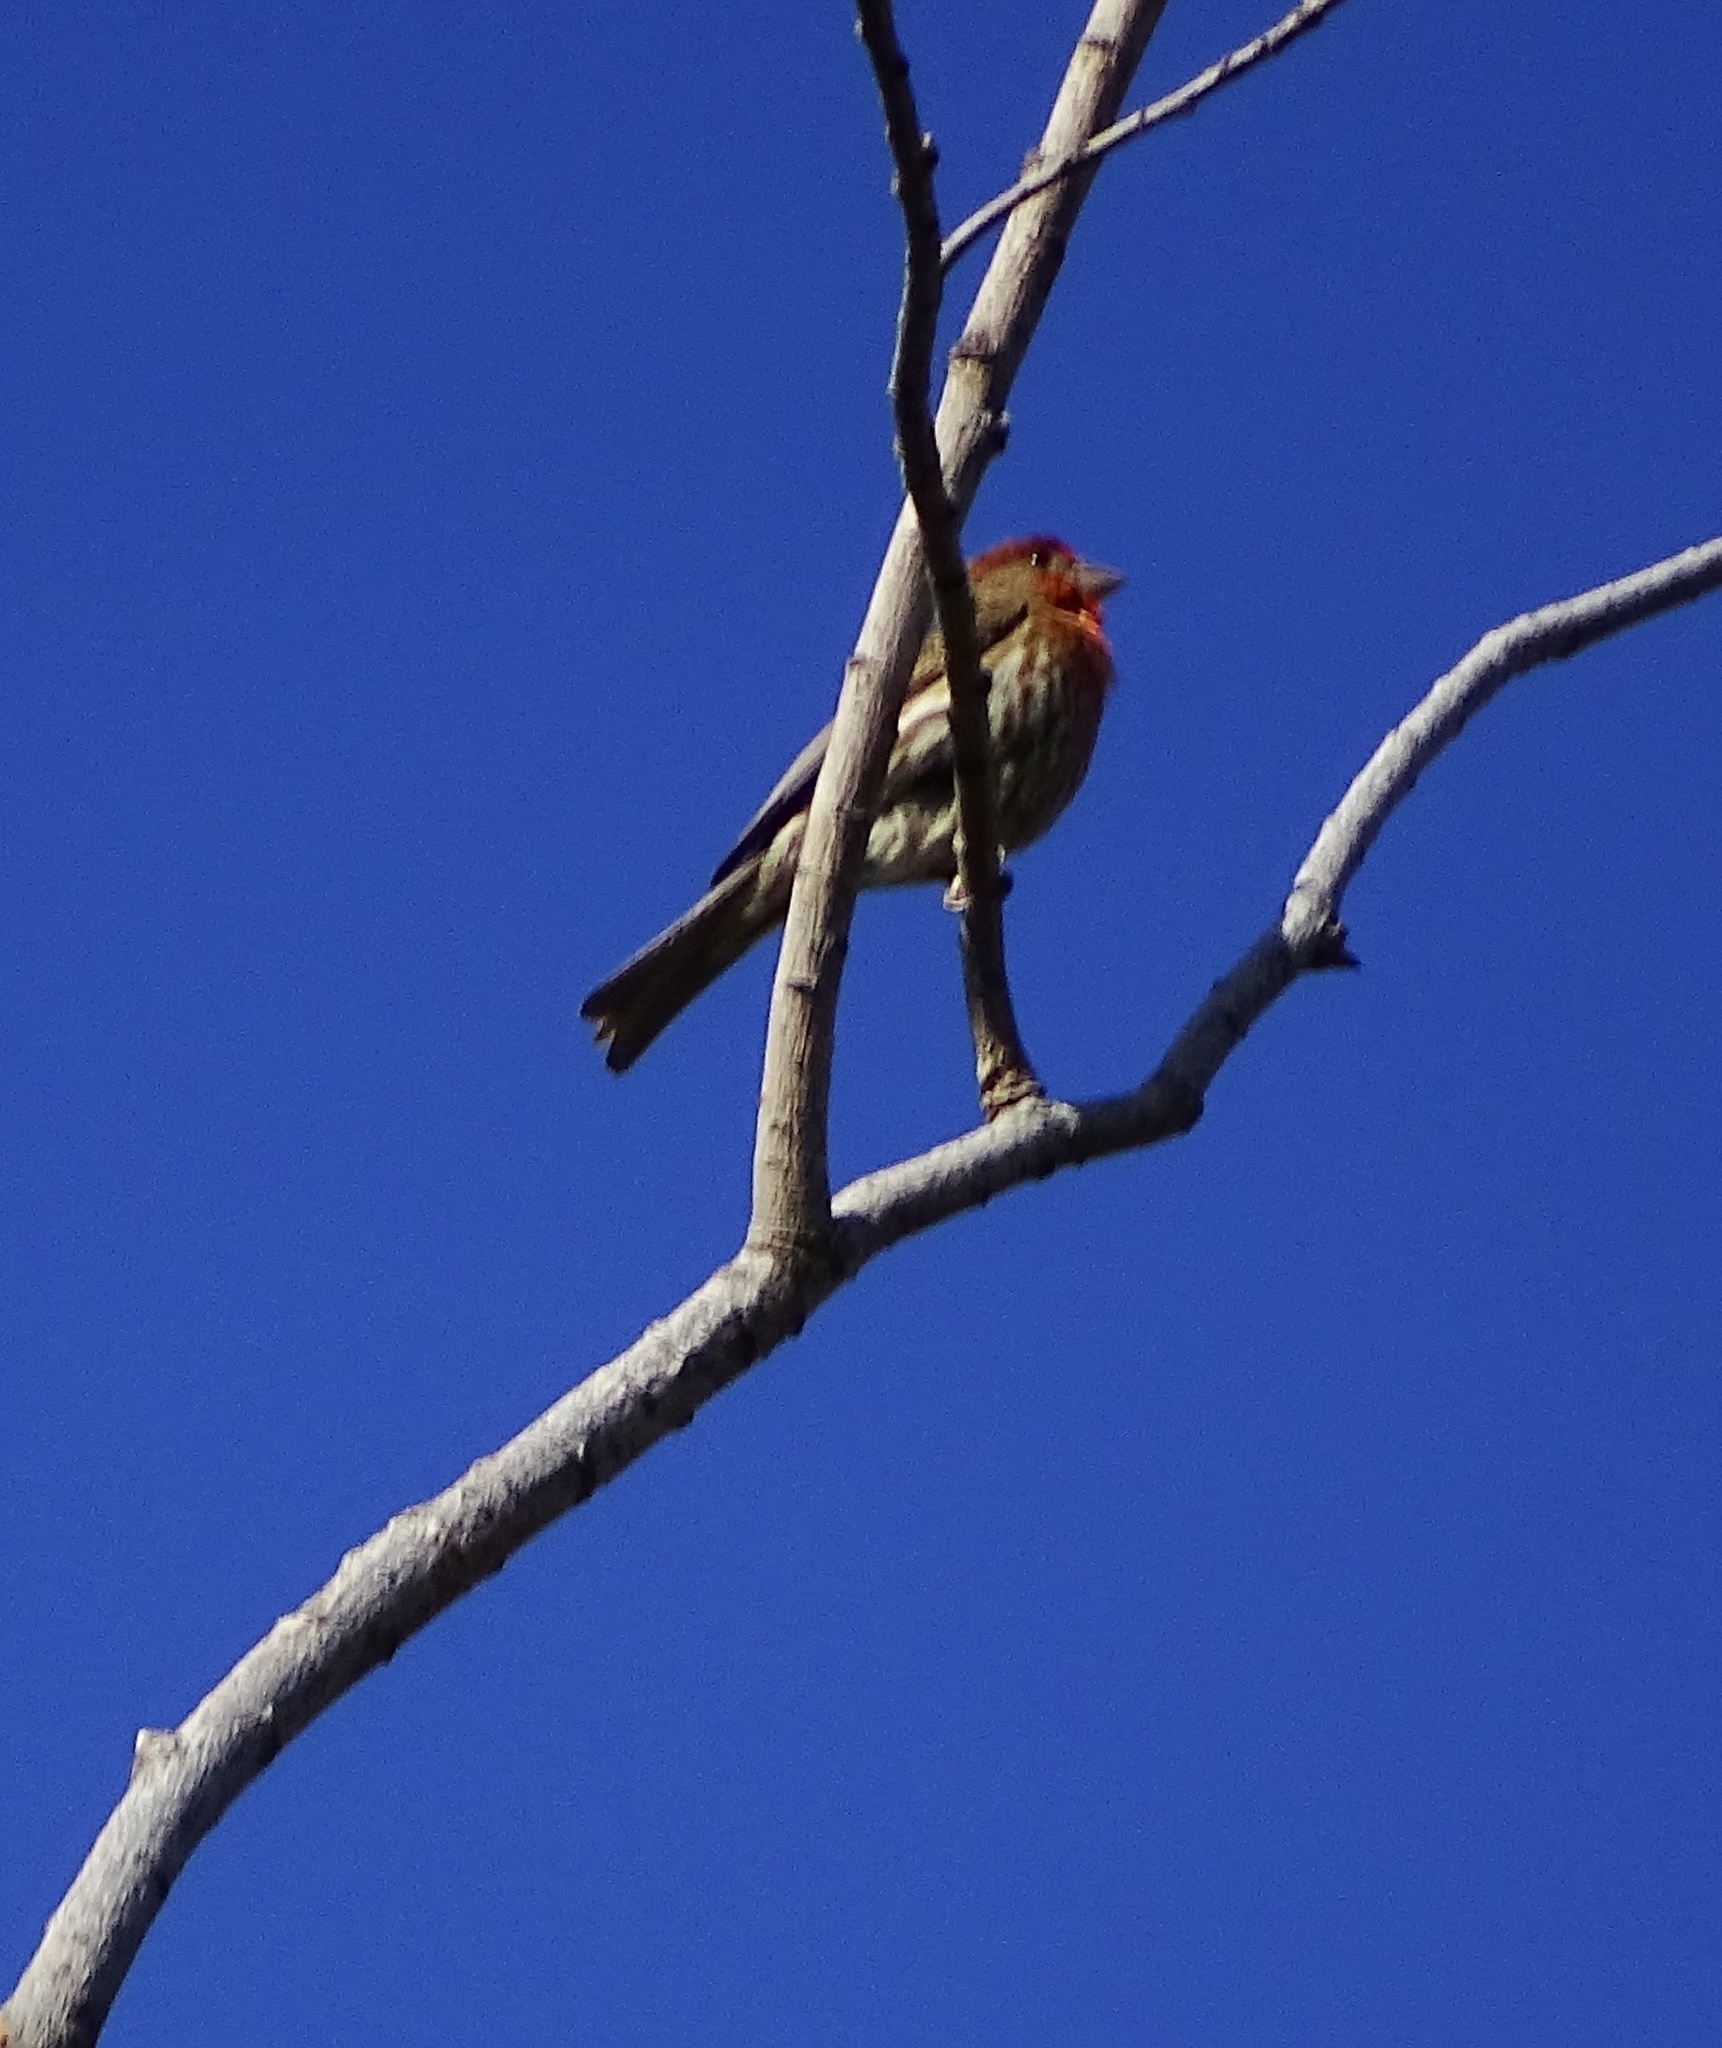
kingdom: Animalia
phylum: Chordata
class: Aves
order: Passeriformes
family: Fringillidae
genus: Haemorhous
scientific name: Haemorhous mexicanus
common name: House finch
